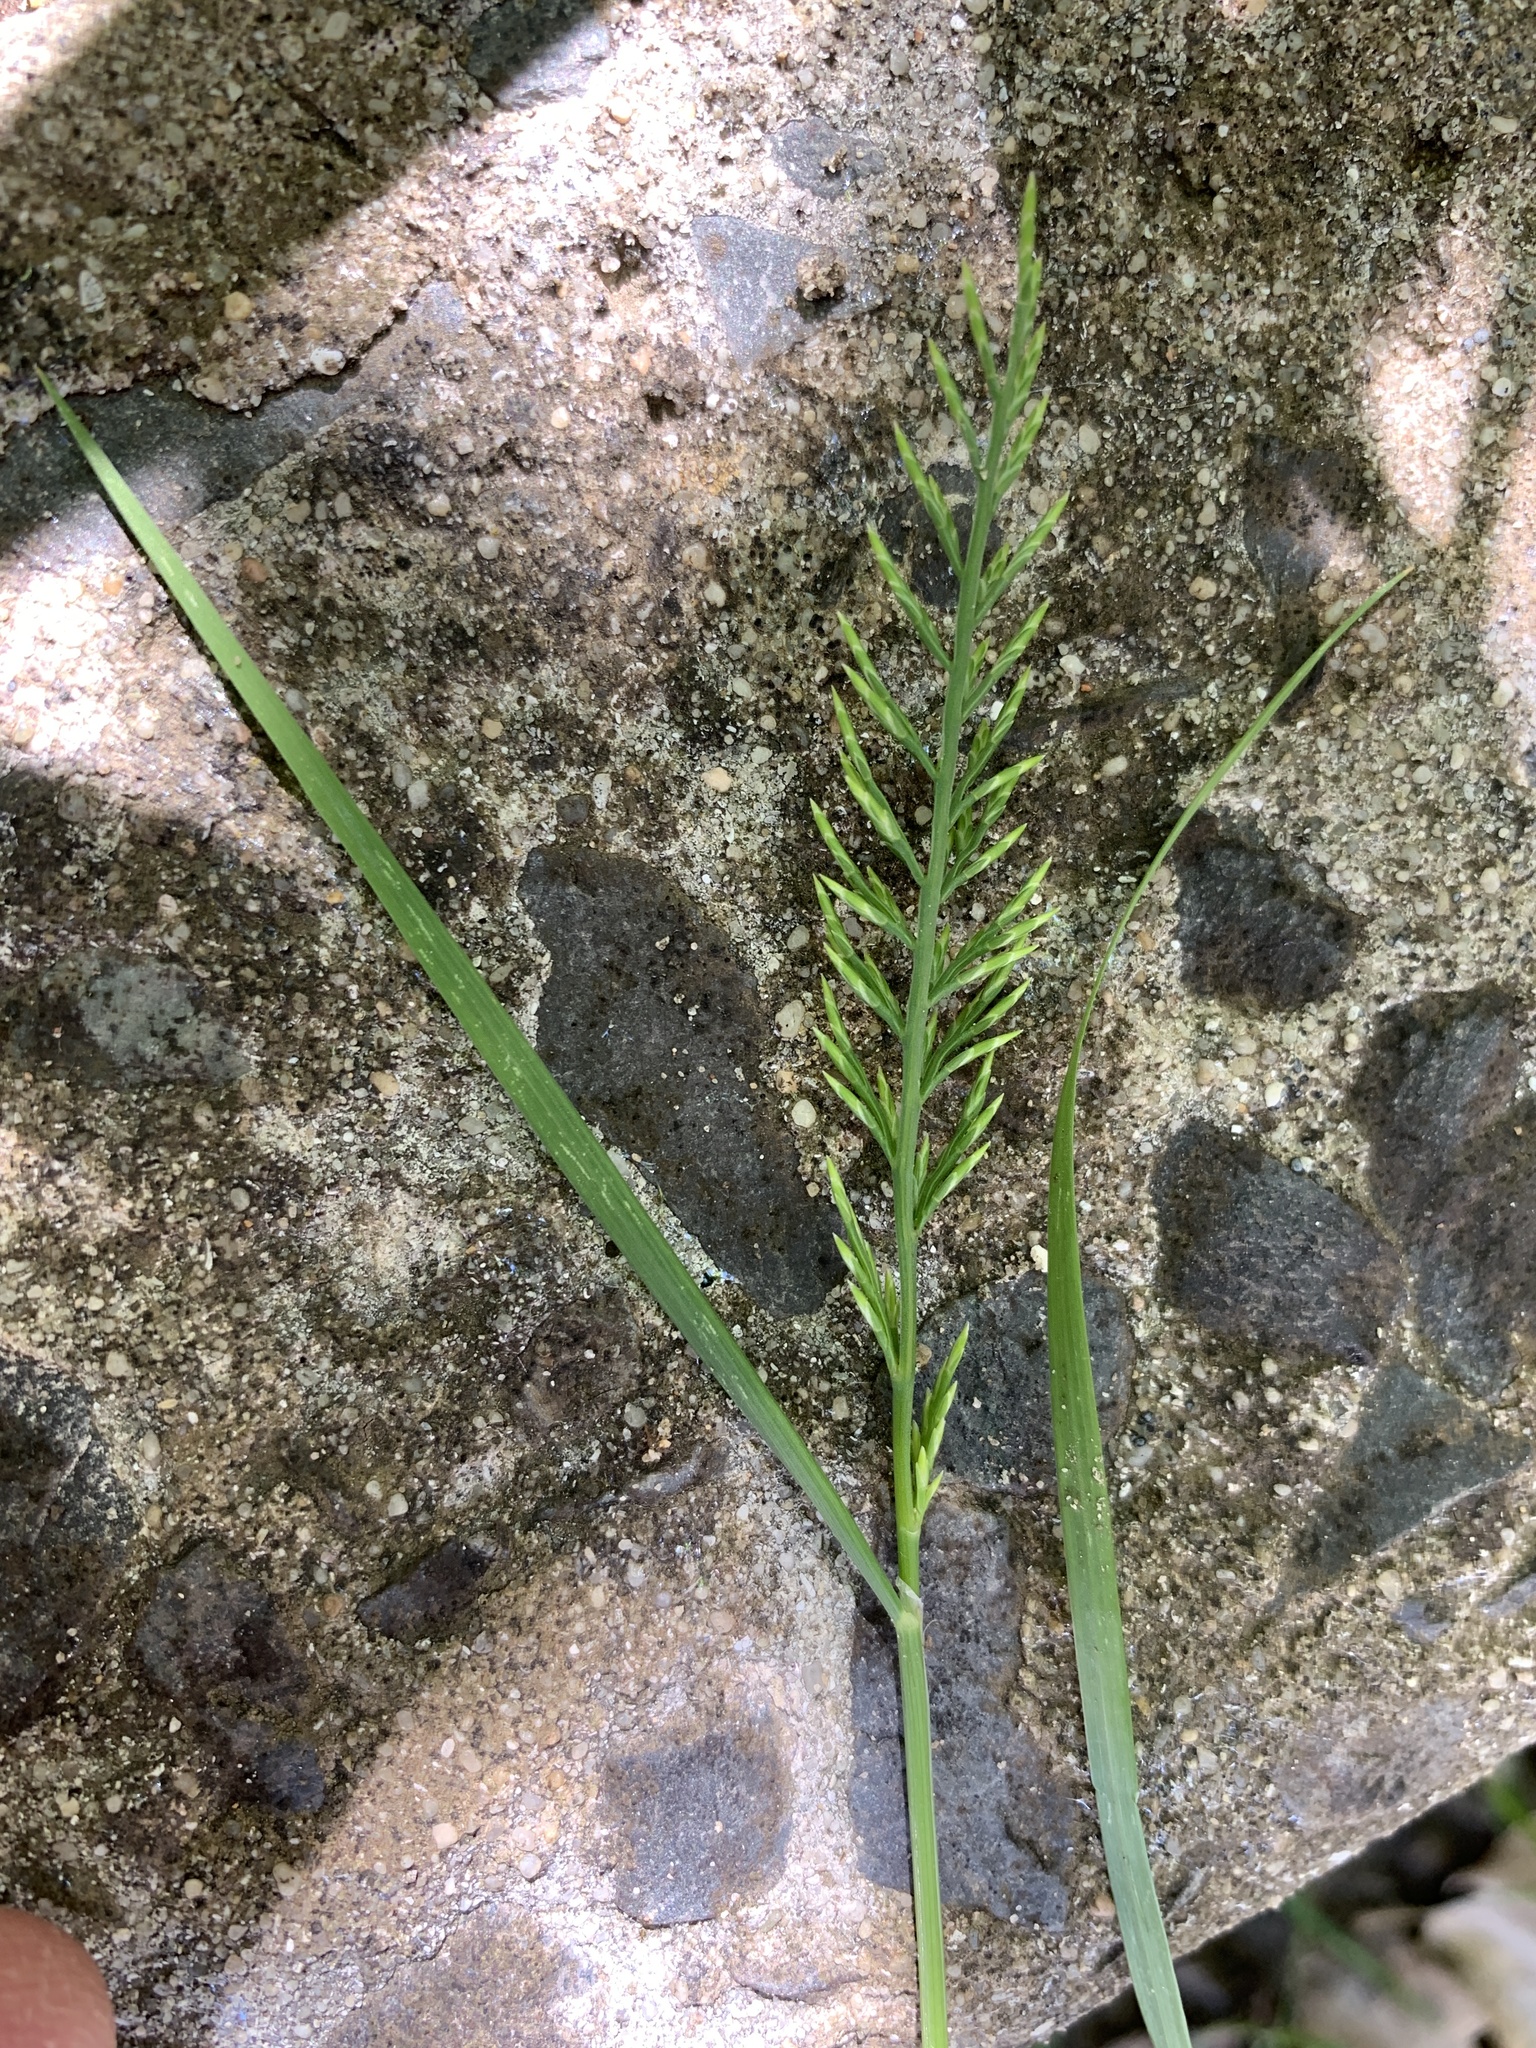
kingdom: Plantae
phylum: Tracheophyta
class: Liliopsida
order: Poales
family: Poaceae
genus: Catapodium
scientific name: Catapodium rigidum
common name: Fern-grass
